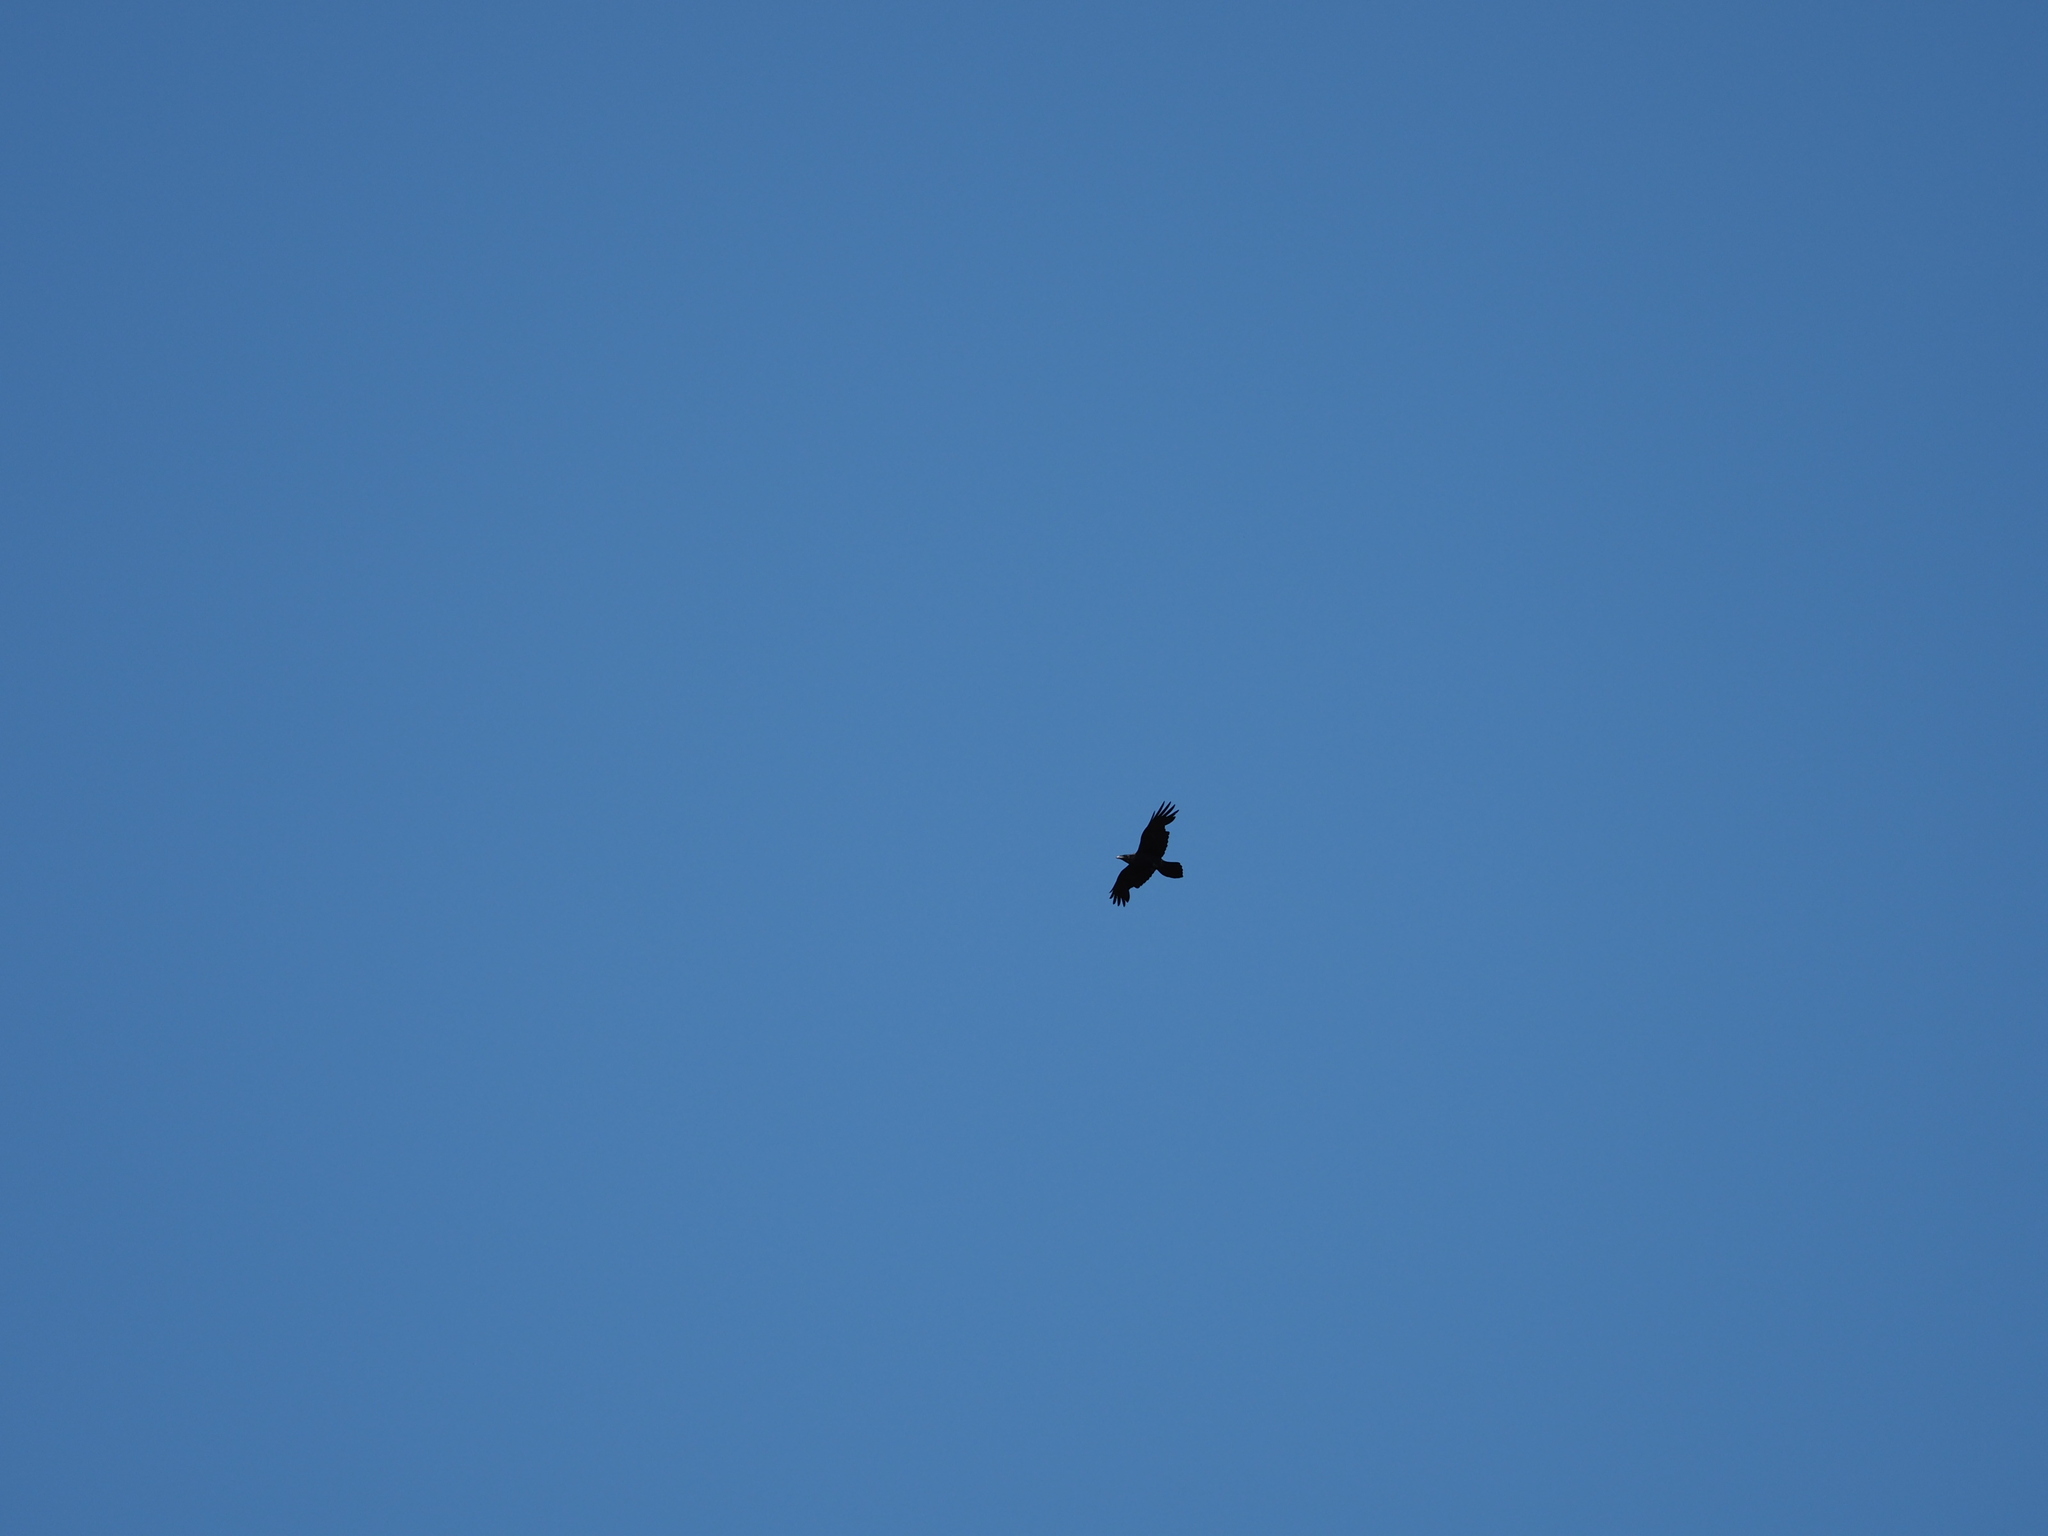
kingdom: Animalia
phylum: Chordata
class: Aves
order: Passeriformes
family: Corvidae
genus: Corvus
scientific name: Corvus corax
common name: Common raven
